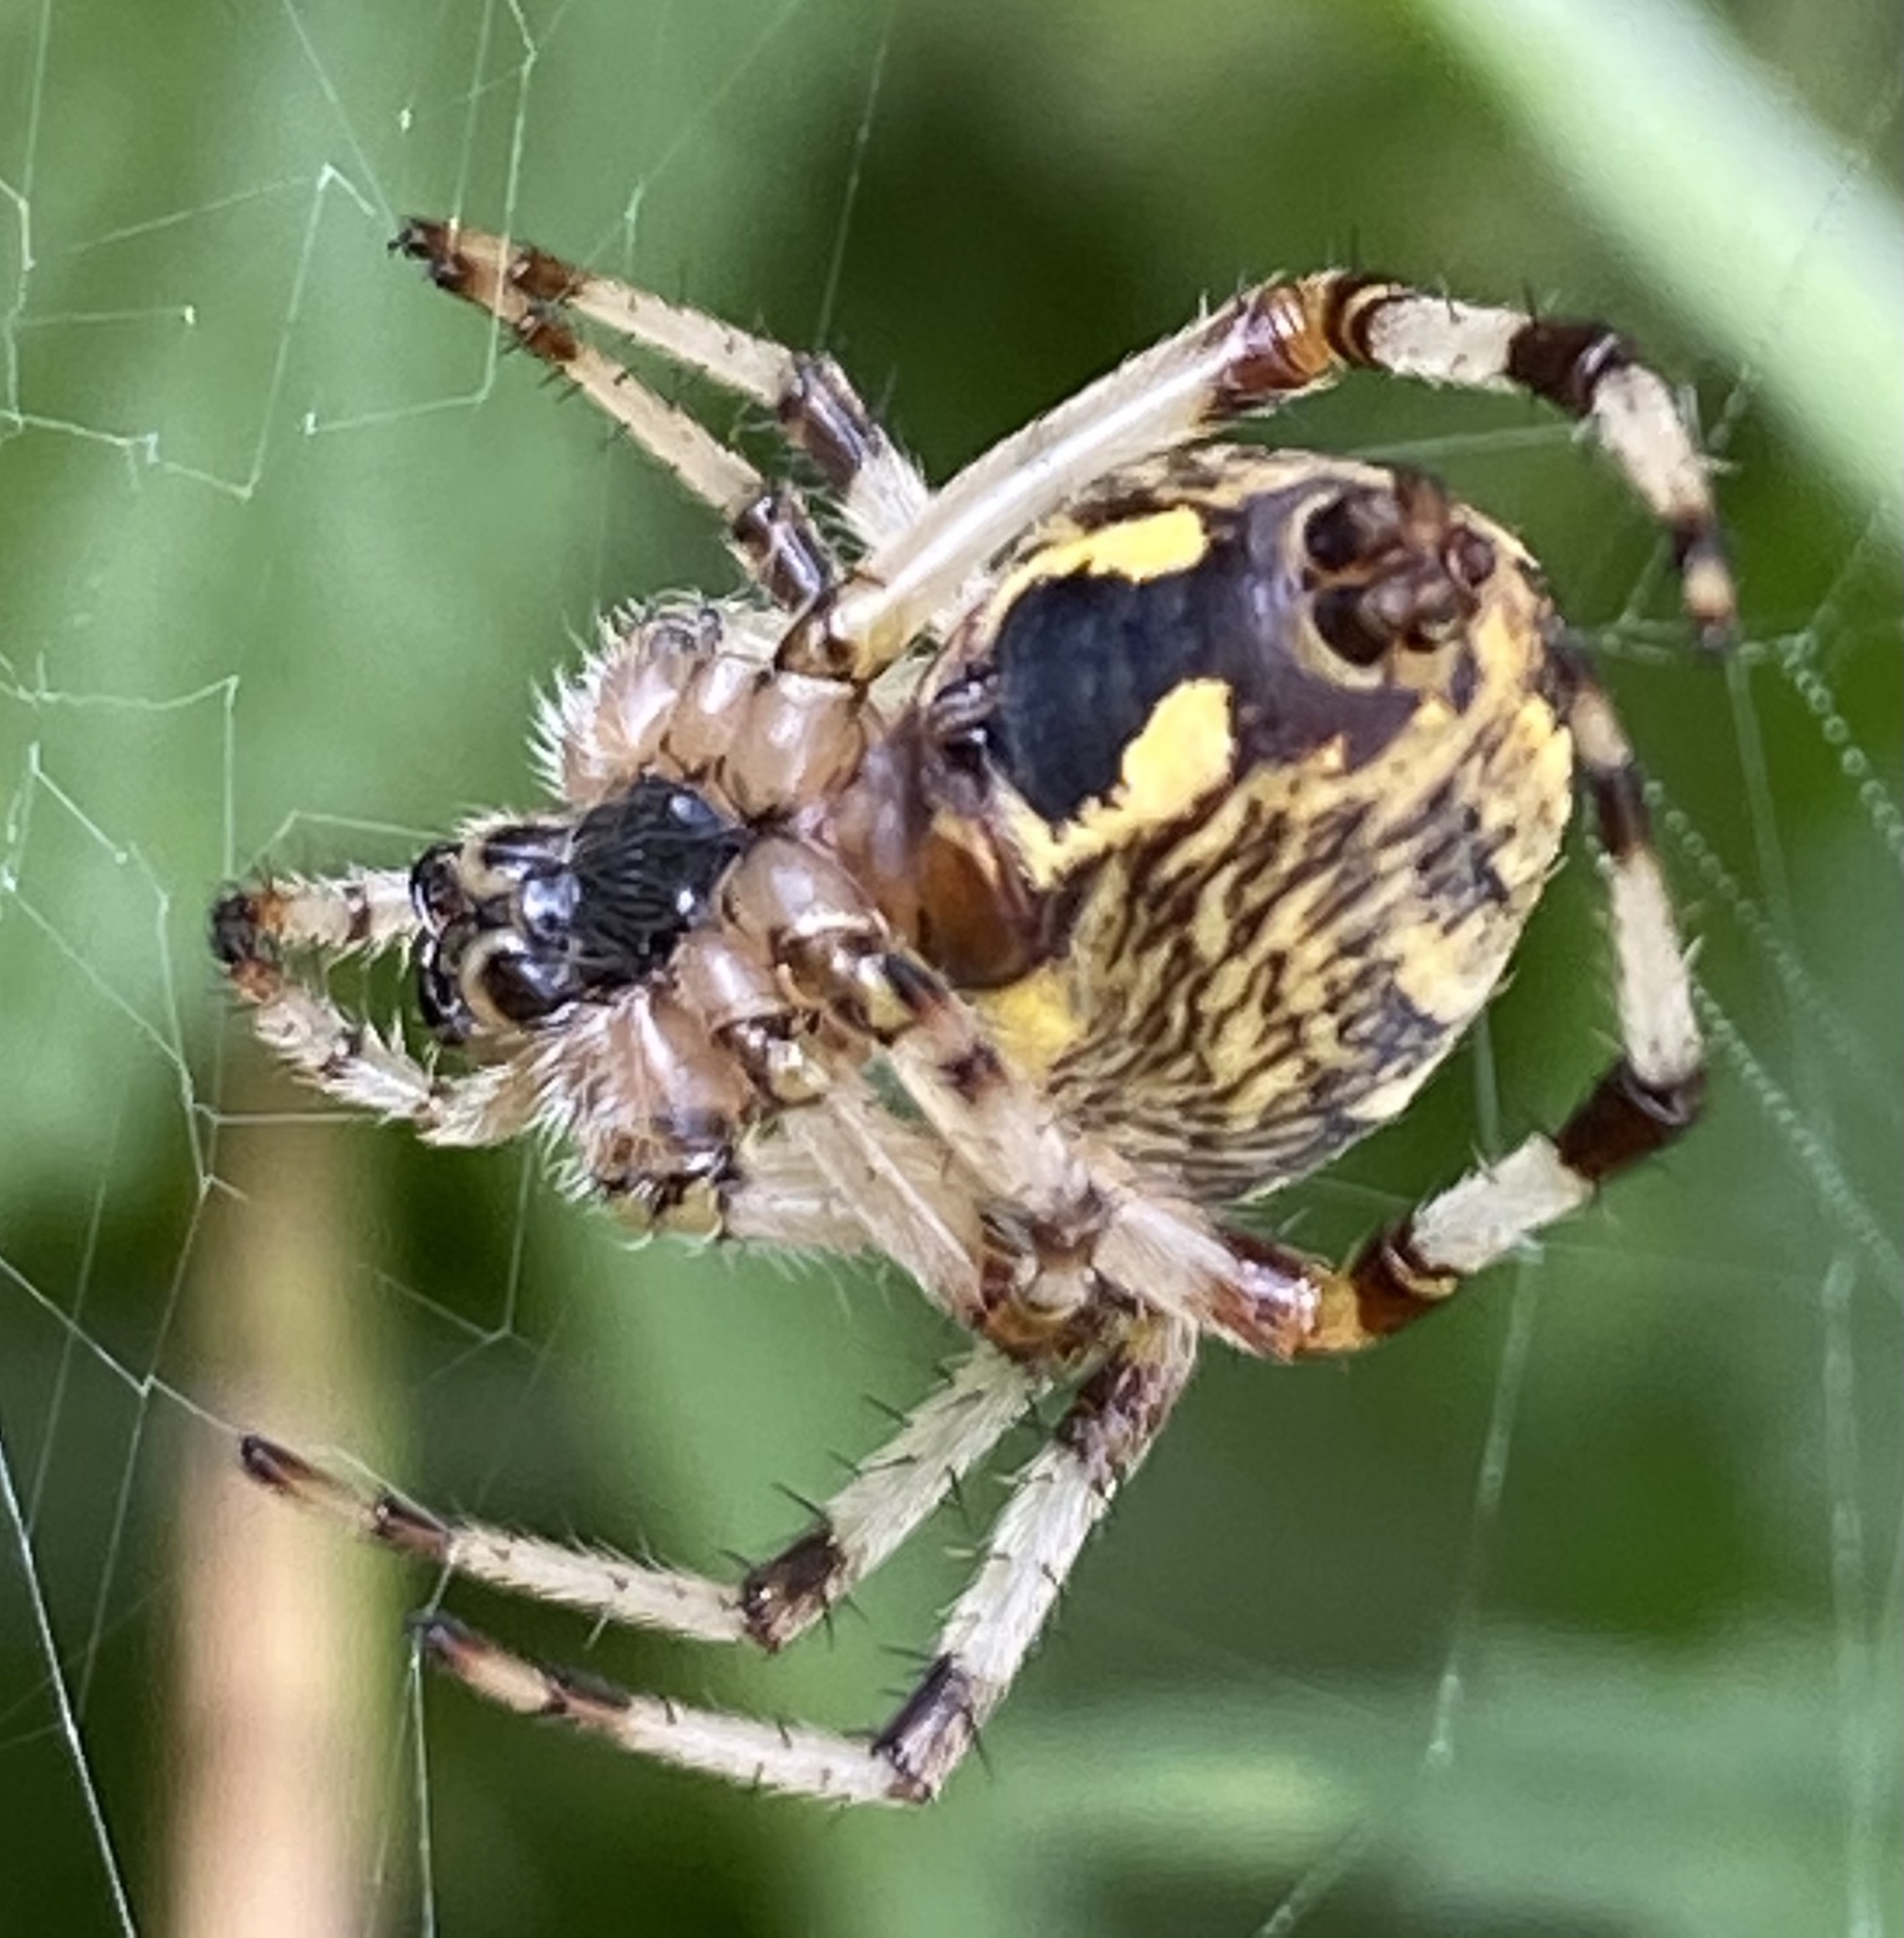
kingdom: Animalia
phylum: Arthropoda
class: Arachnida
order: Araneae
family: Araneidae
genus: Araneus
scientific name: Araneus marmoreus
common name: Marbled orbweaver
